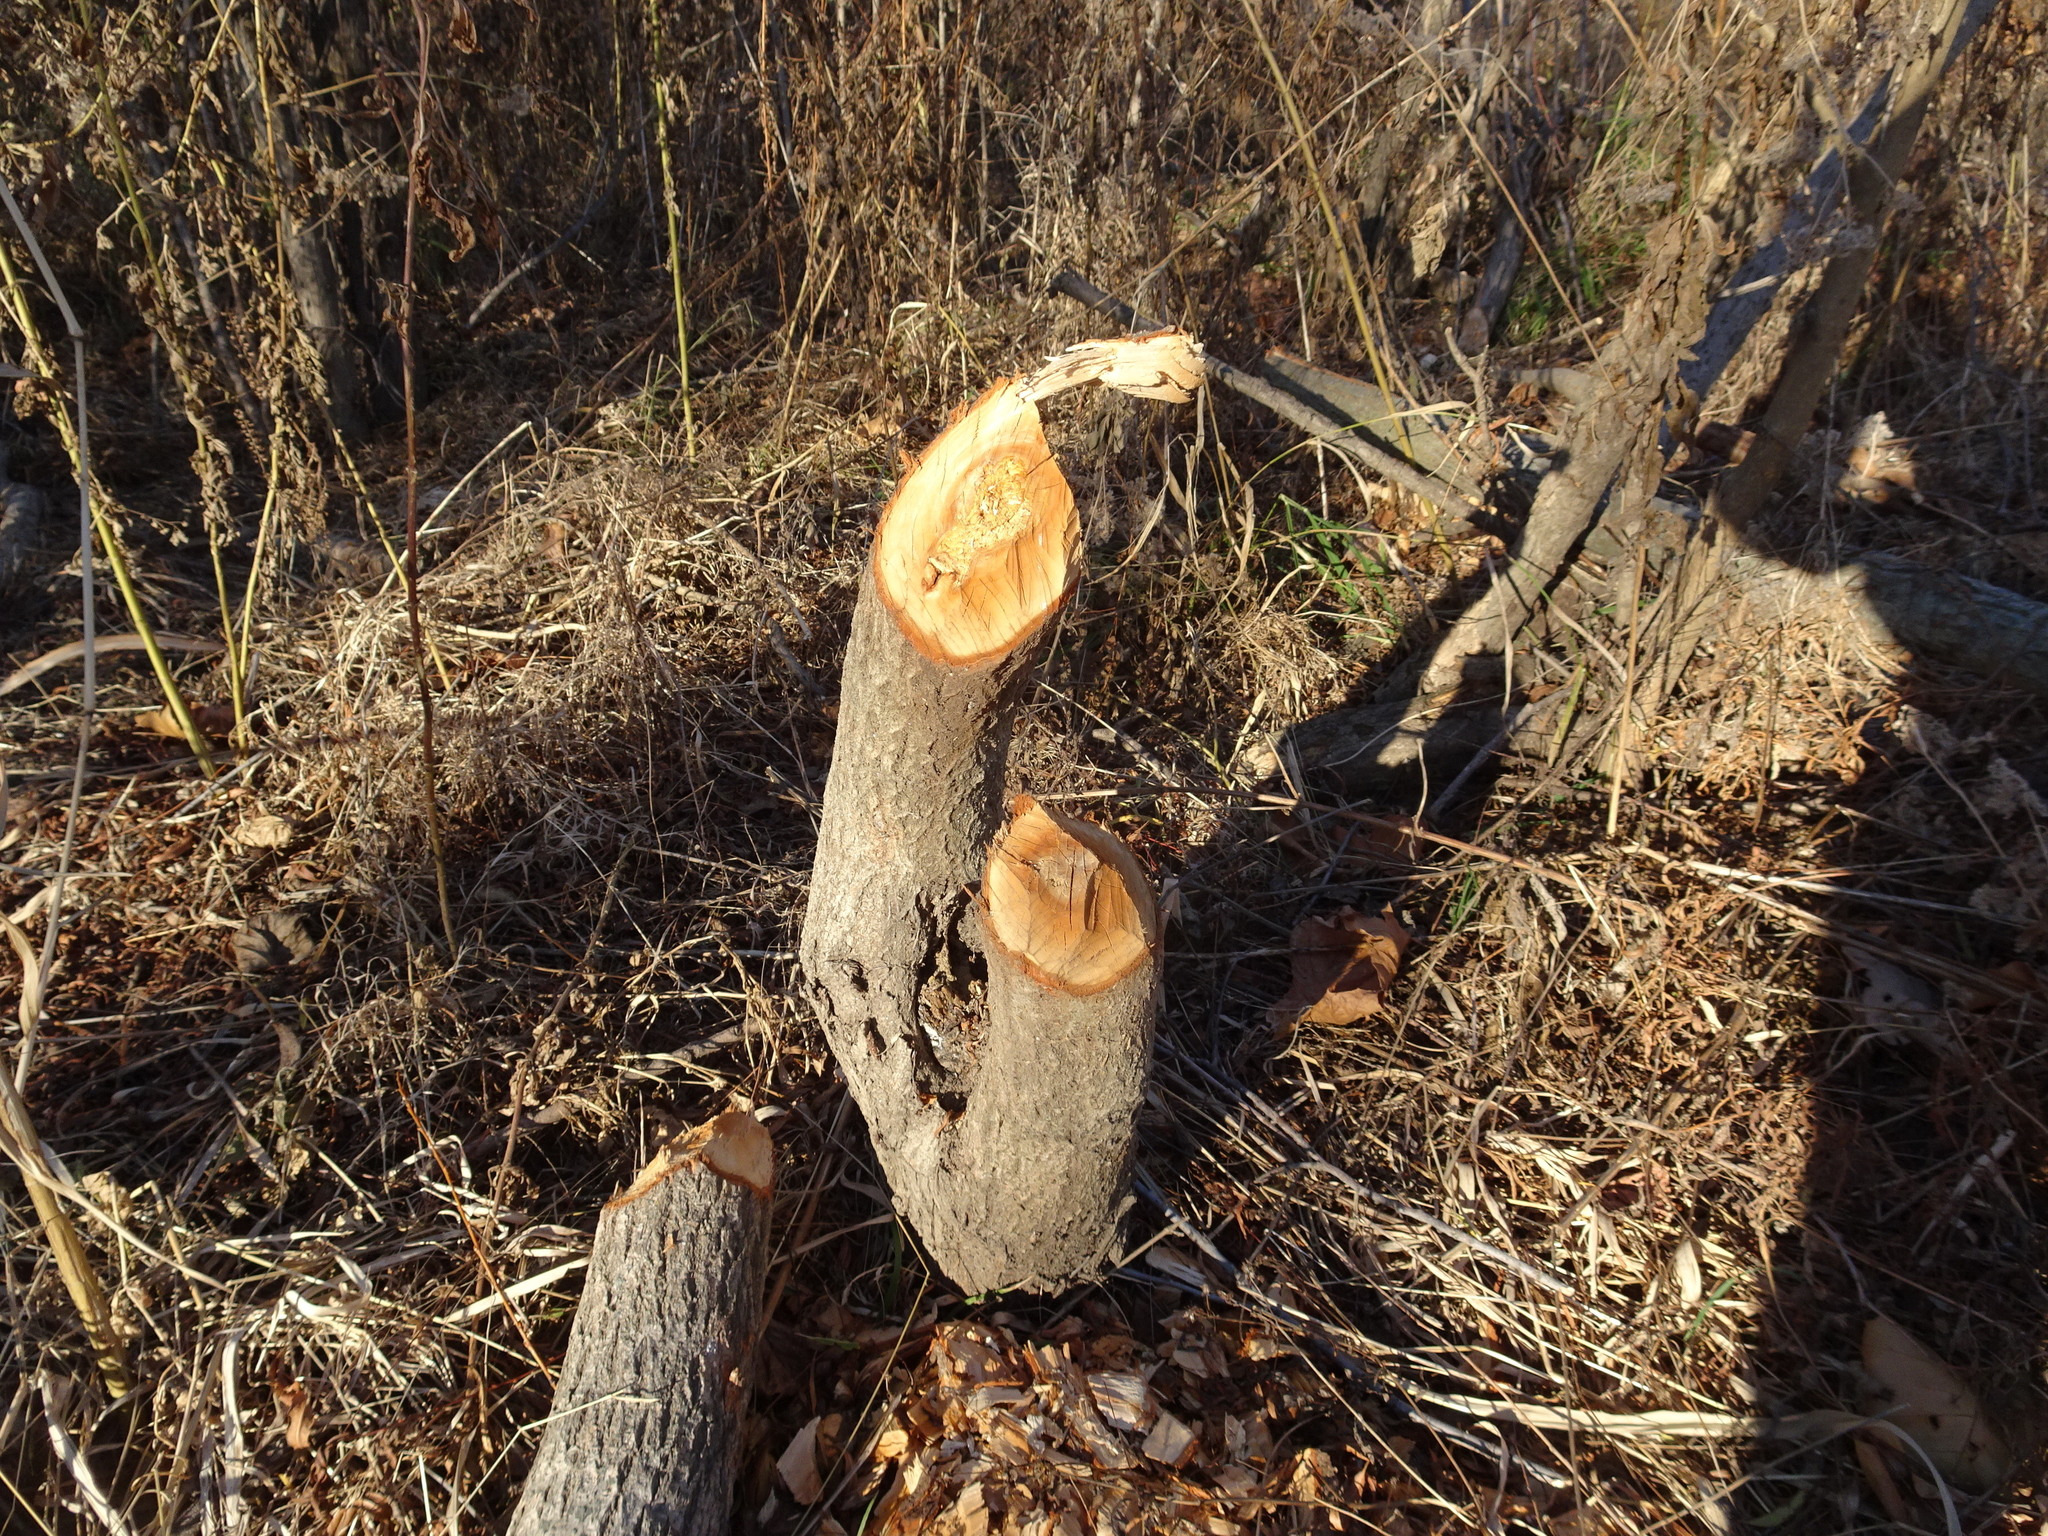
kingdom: Animalia
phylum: Chordata
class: Mammalia
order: Rodentia
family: Castoridae
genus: Castor
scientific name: Castor canadensis
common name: American beaver
